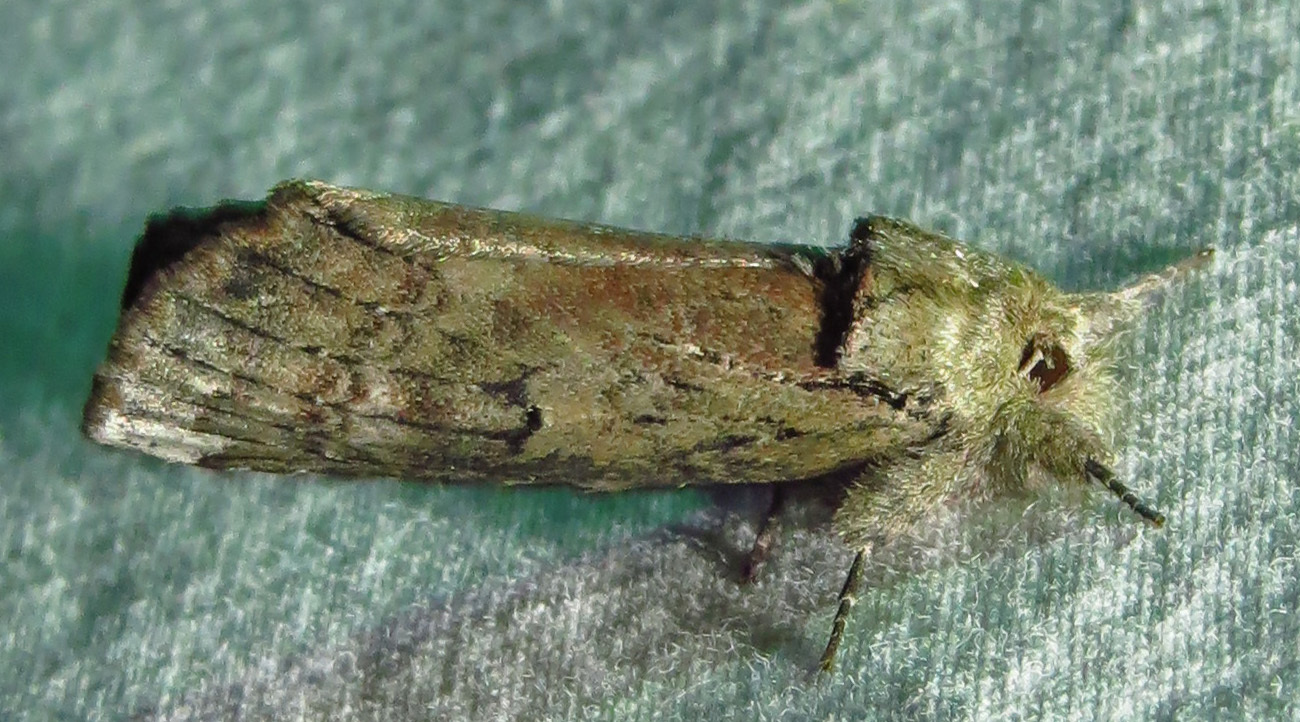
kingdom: Animalia
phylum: Arthropoda
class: Insecta
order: Lepidoptera
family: Notodontidae
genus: Schizura
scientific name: Schizura
